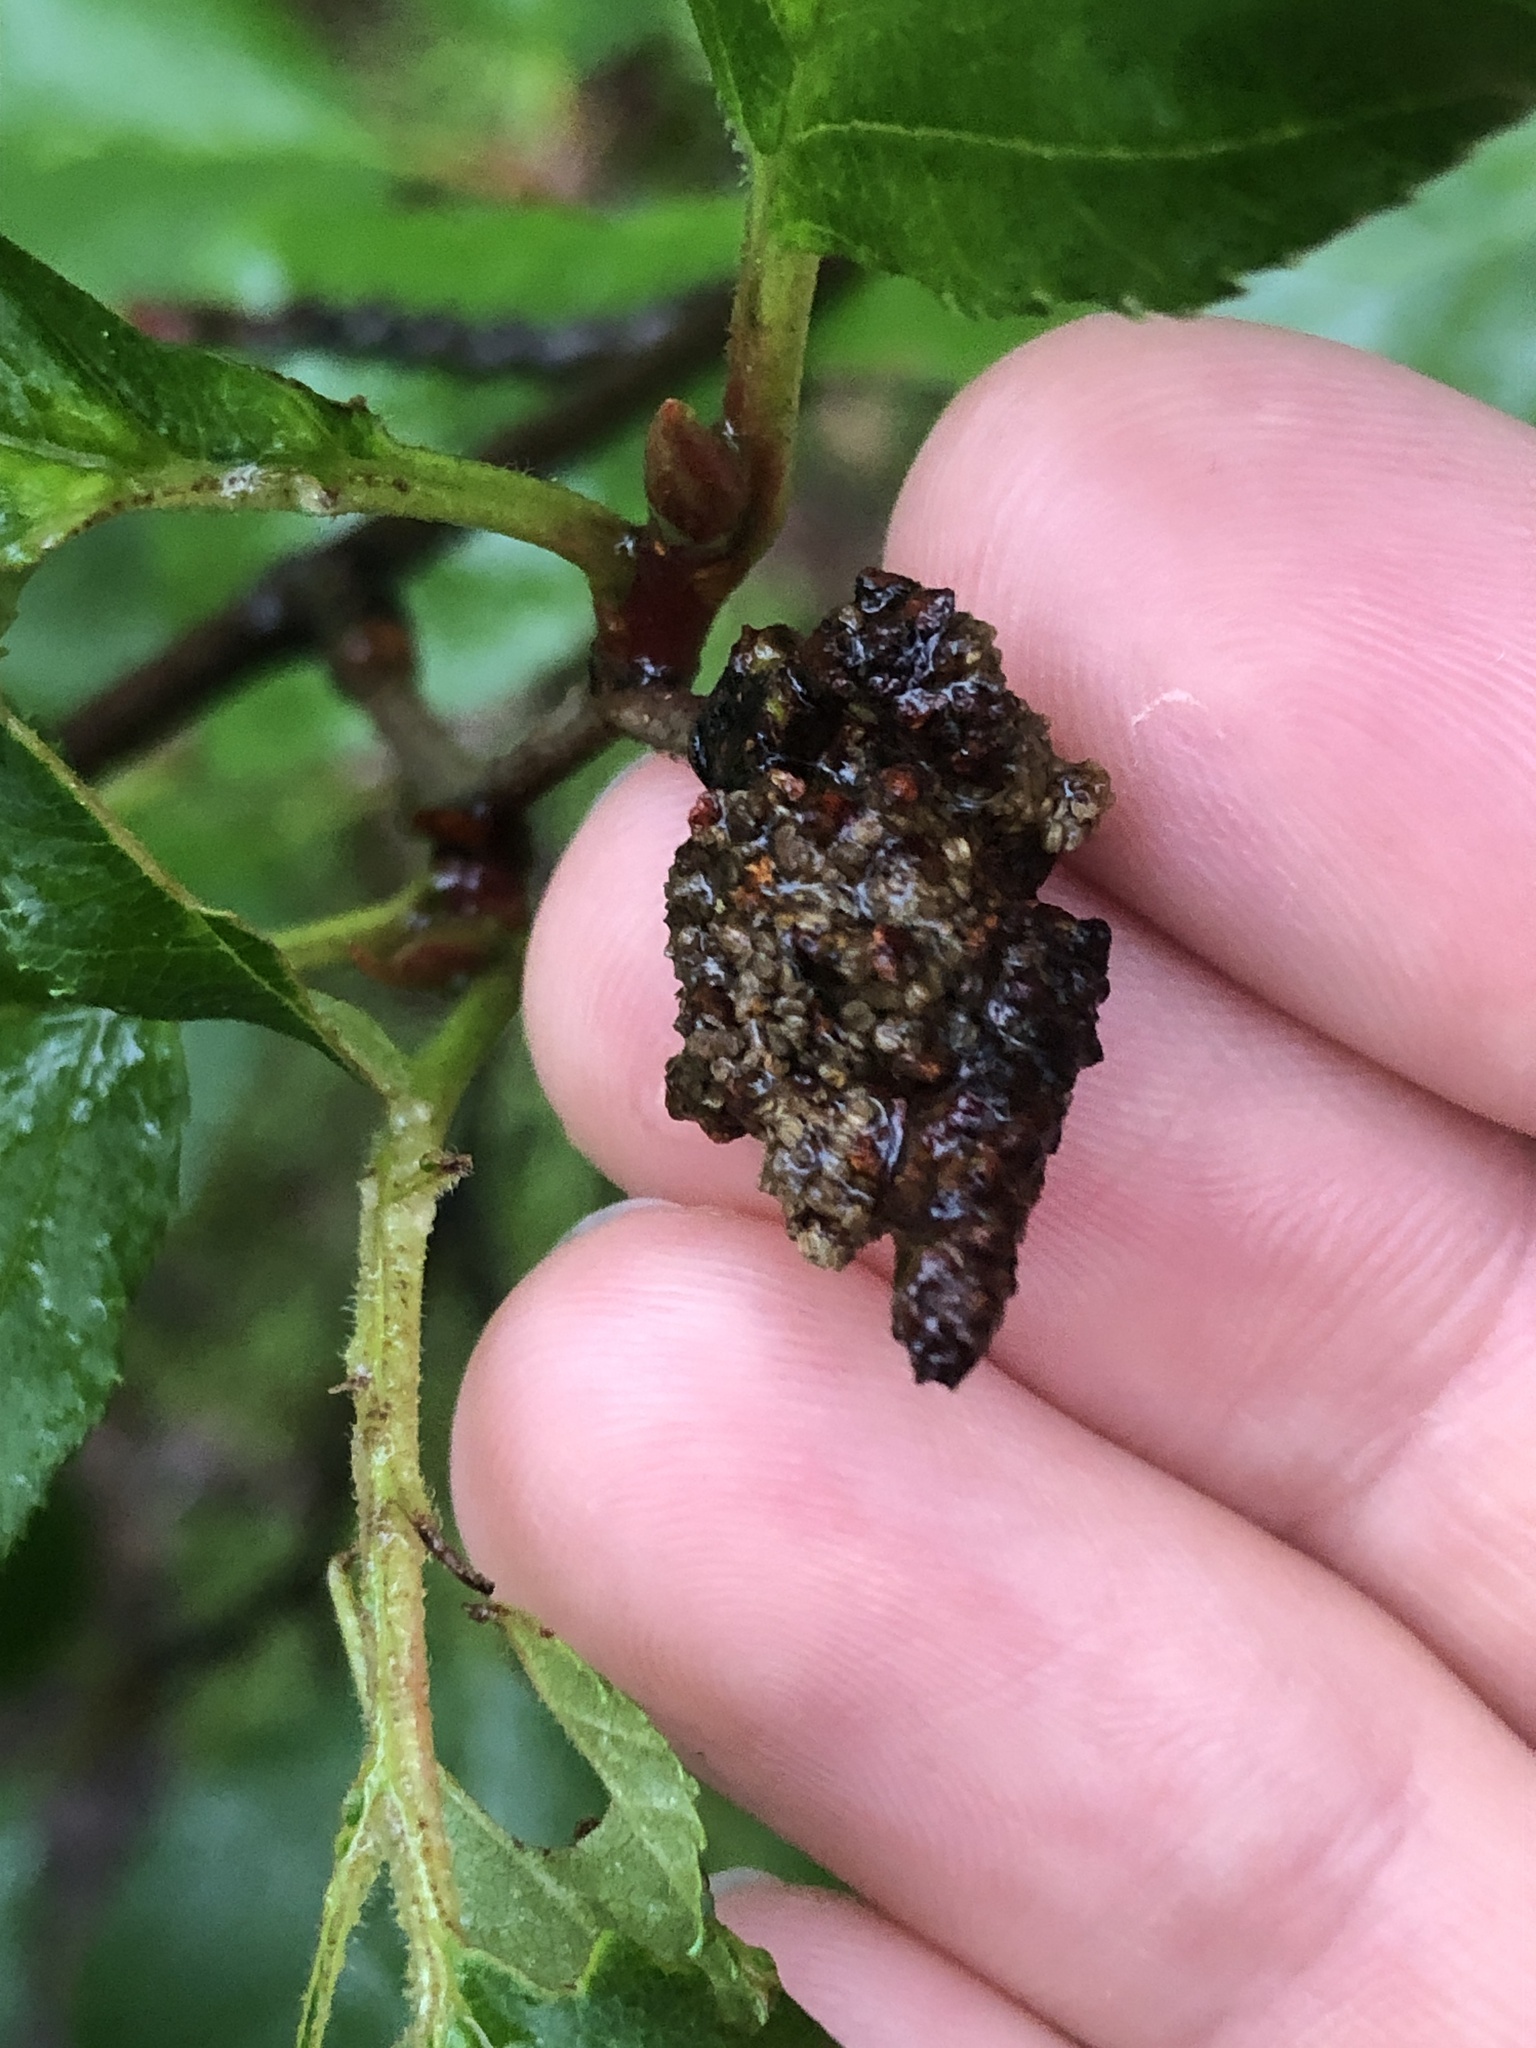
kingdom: Plantae
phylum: Tracheophyta
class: Magnoliopsida
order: Fagales
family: Betulaceae
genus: Alnus
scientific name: Alnus alnobetula
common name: Green alder
